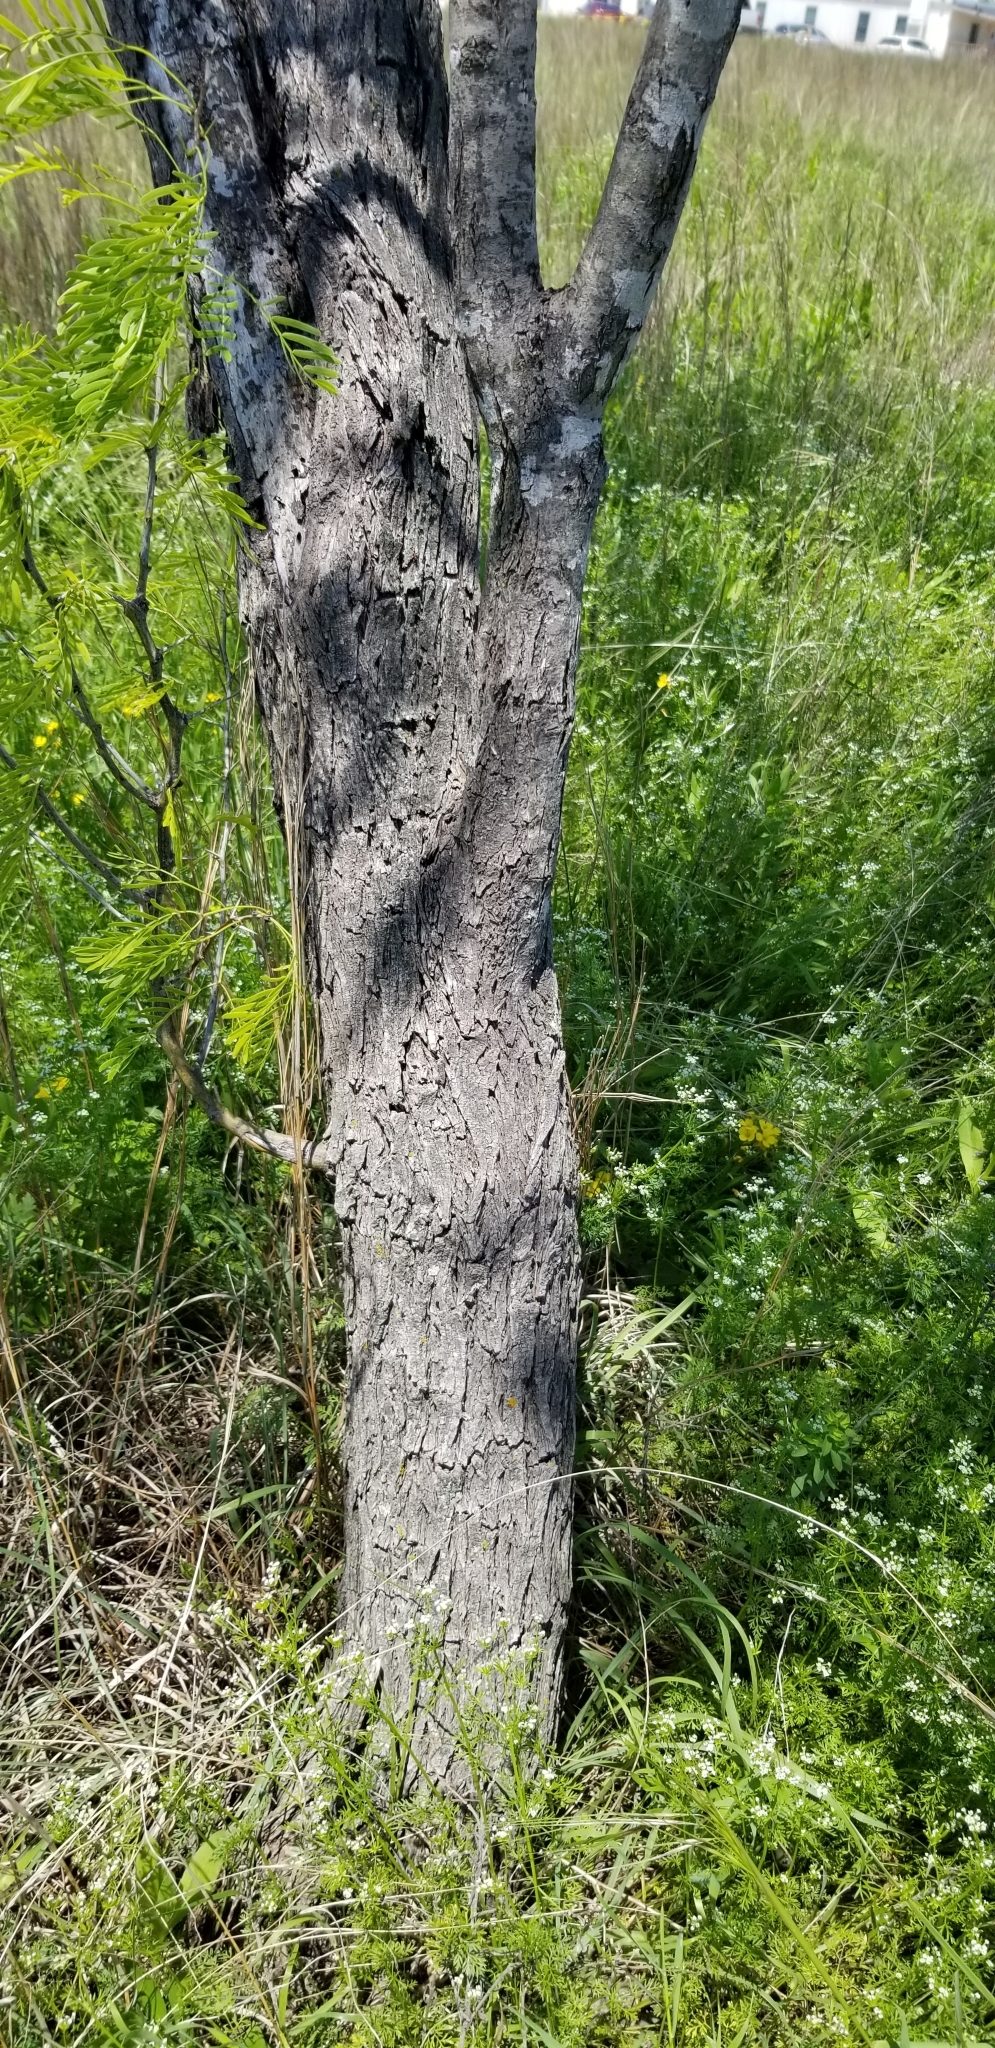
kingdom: Plantae
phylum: Tracheophyta
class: Magnoliopsida
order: Fabales
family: Fabaceae
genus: Prosopis
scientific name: Prosopis glandulosa
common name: Honey mesquite
